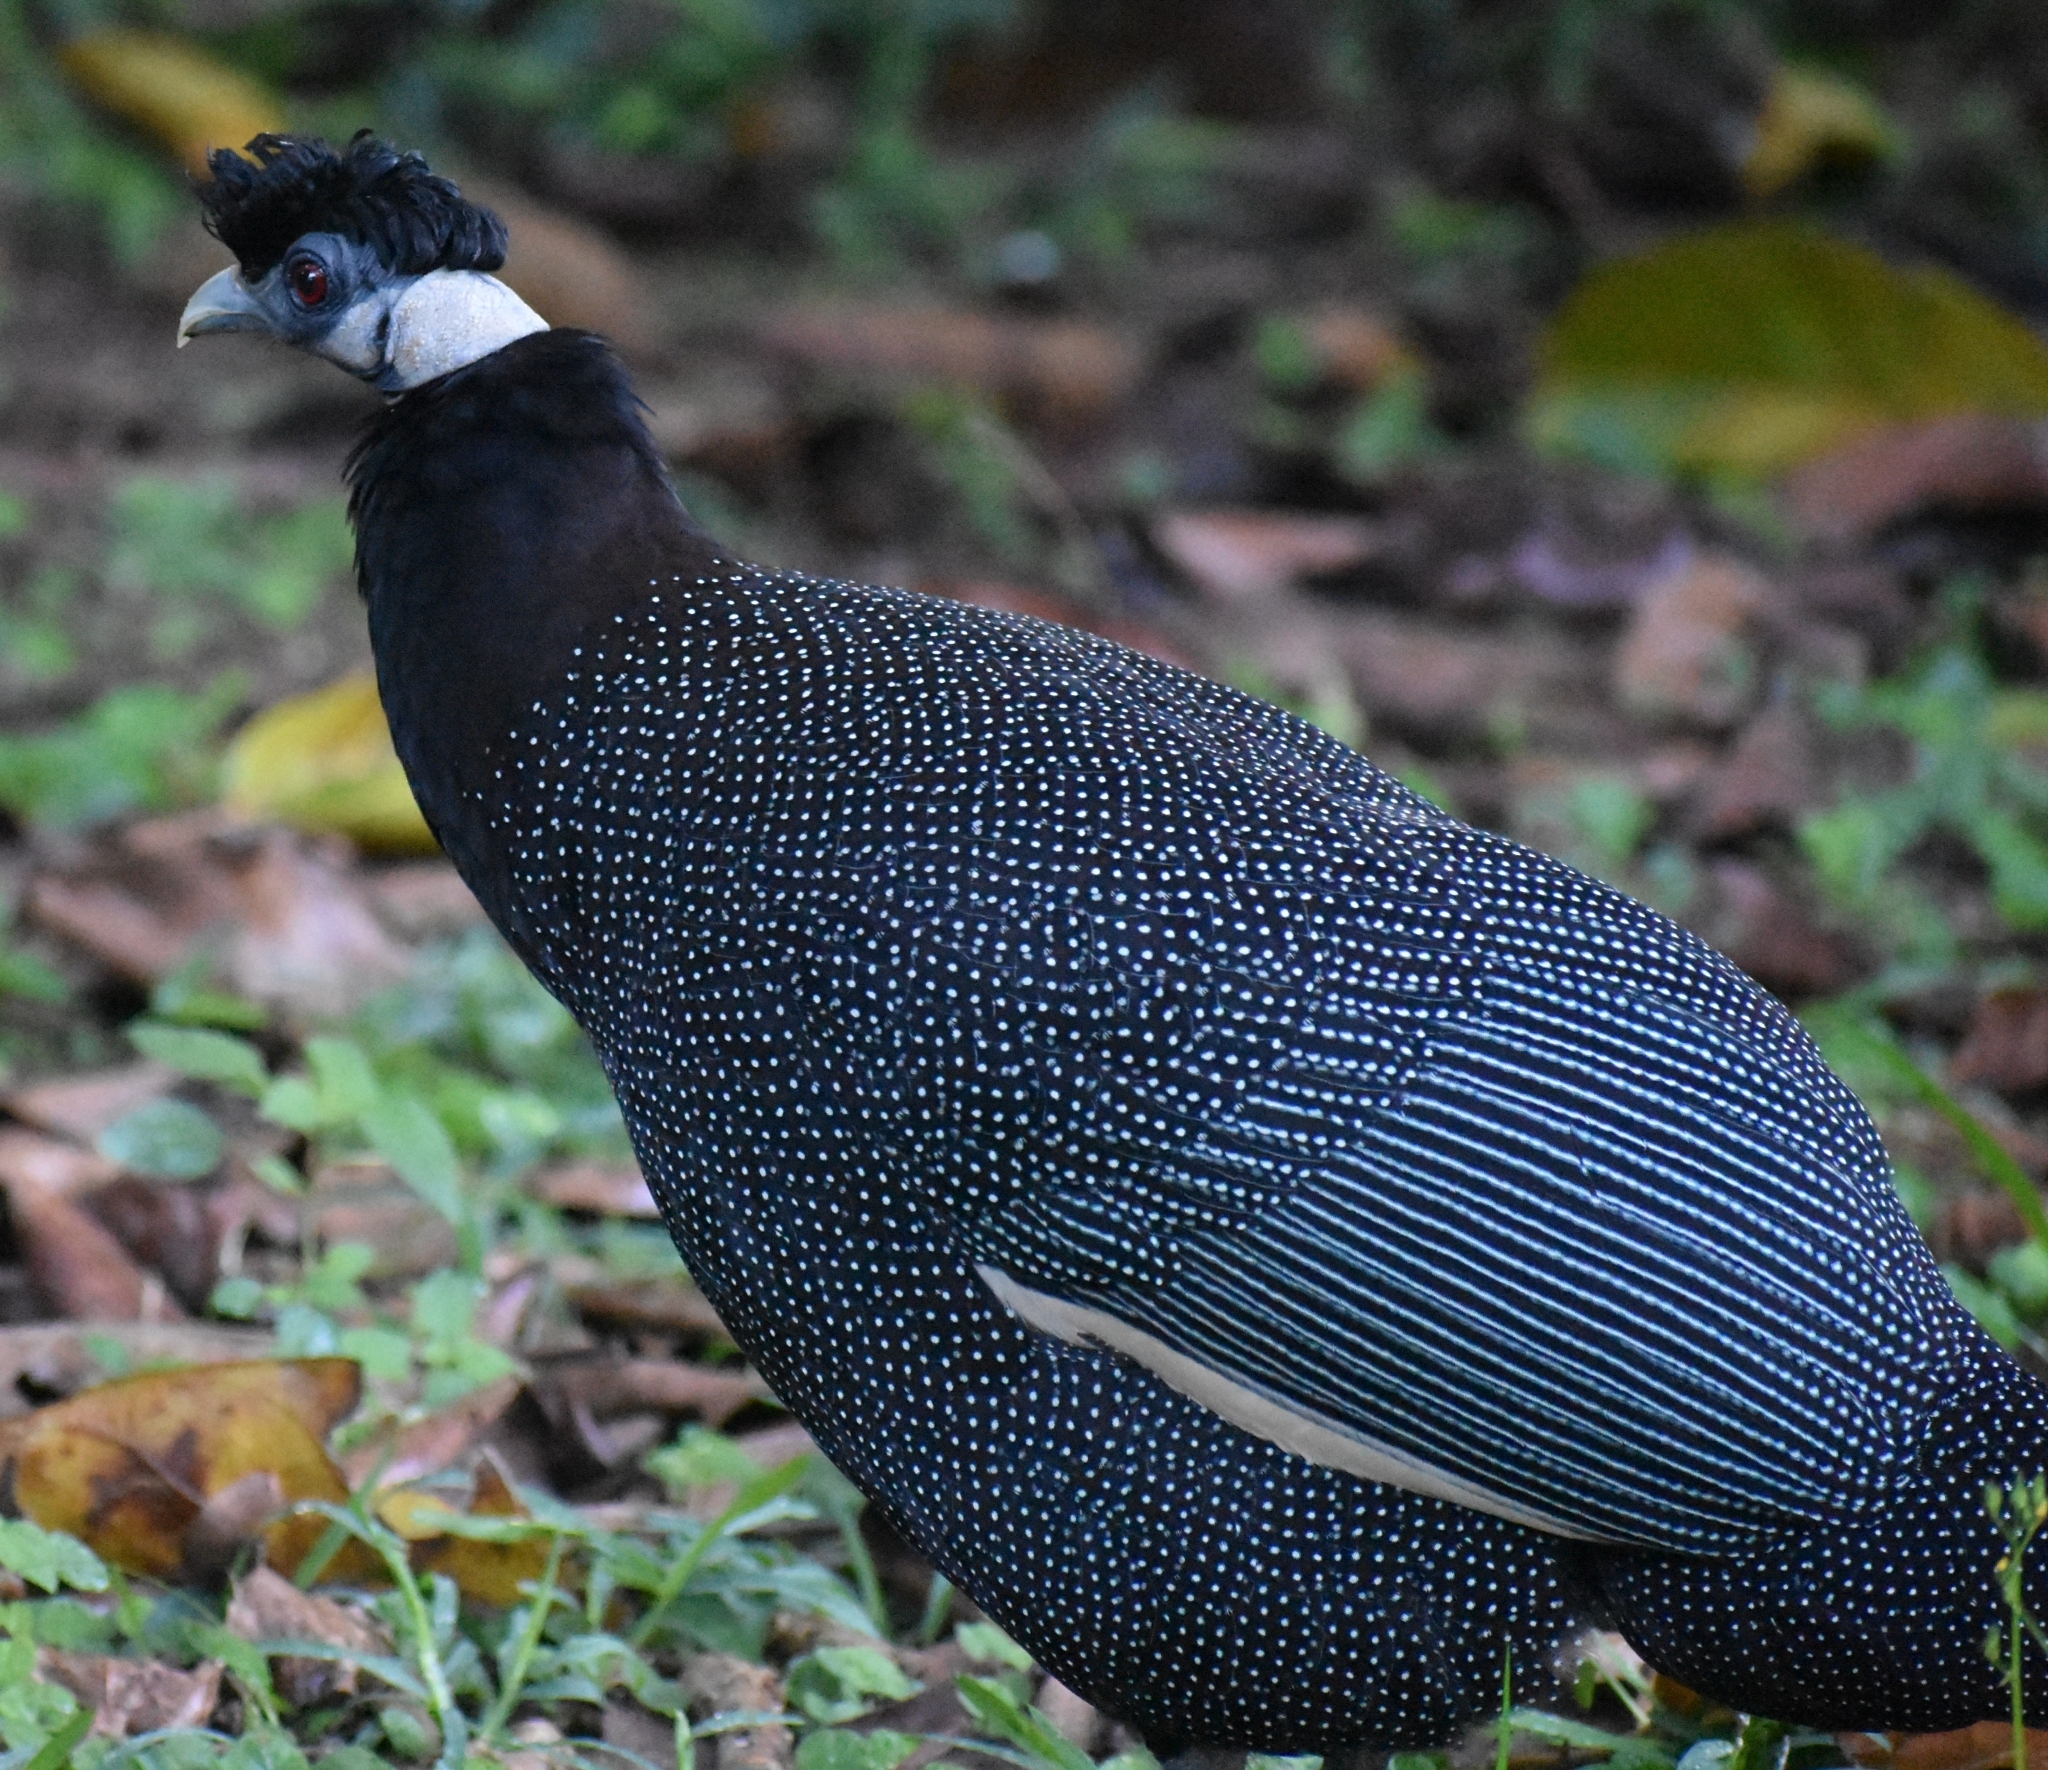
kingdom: Animalia
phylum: Chordata
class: Aves
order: Galliformes
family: Numididae
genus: Guttera
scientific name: Guttera pucherani
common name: Crested guineafowl
